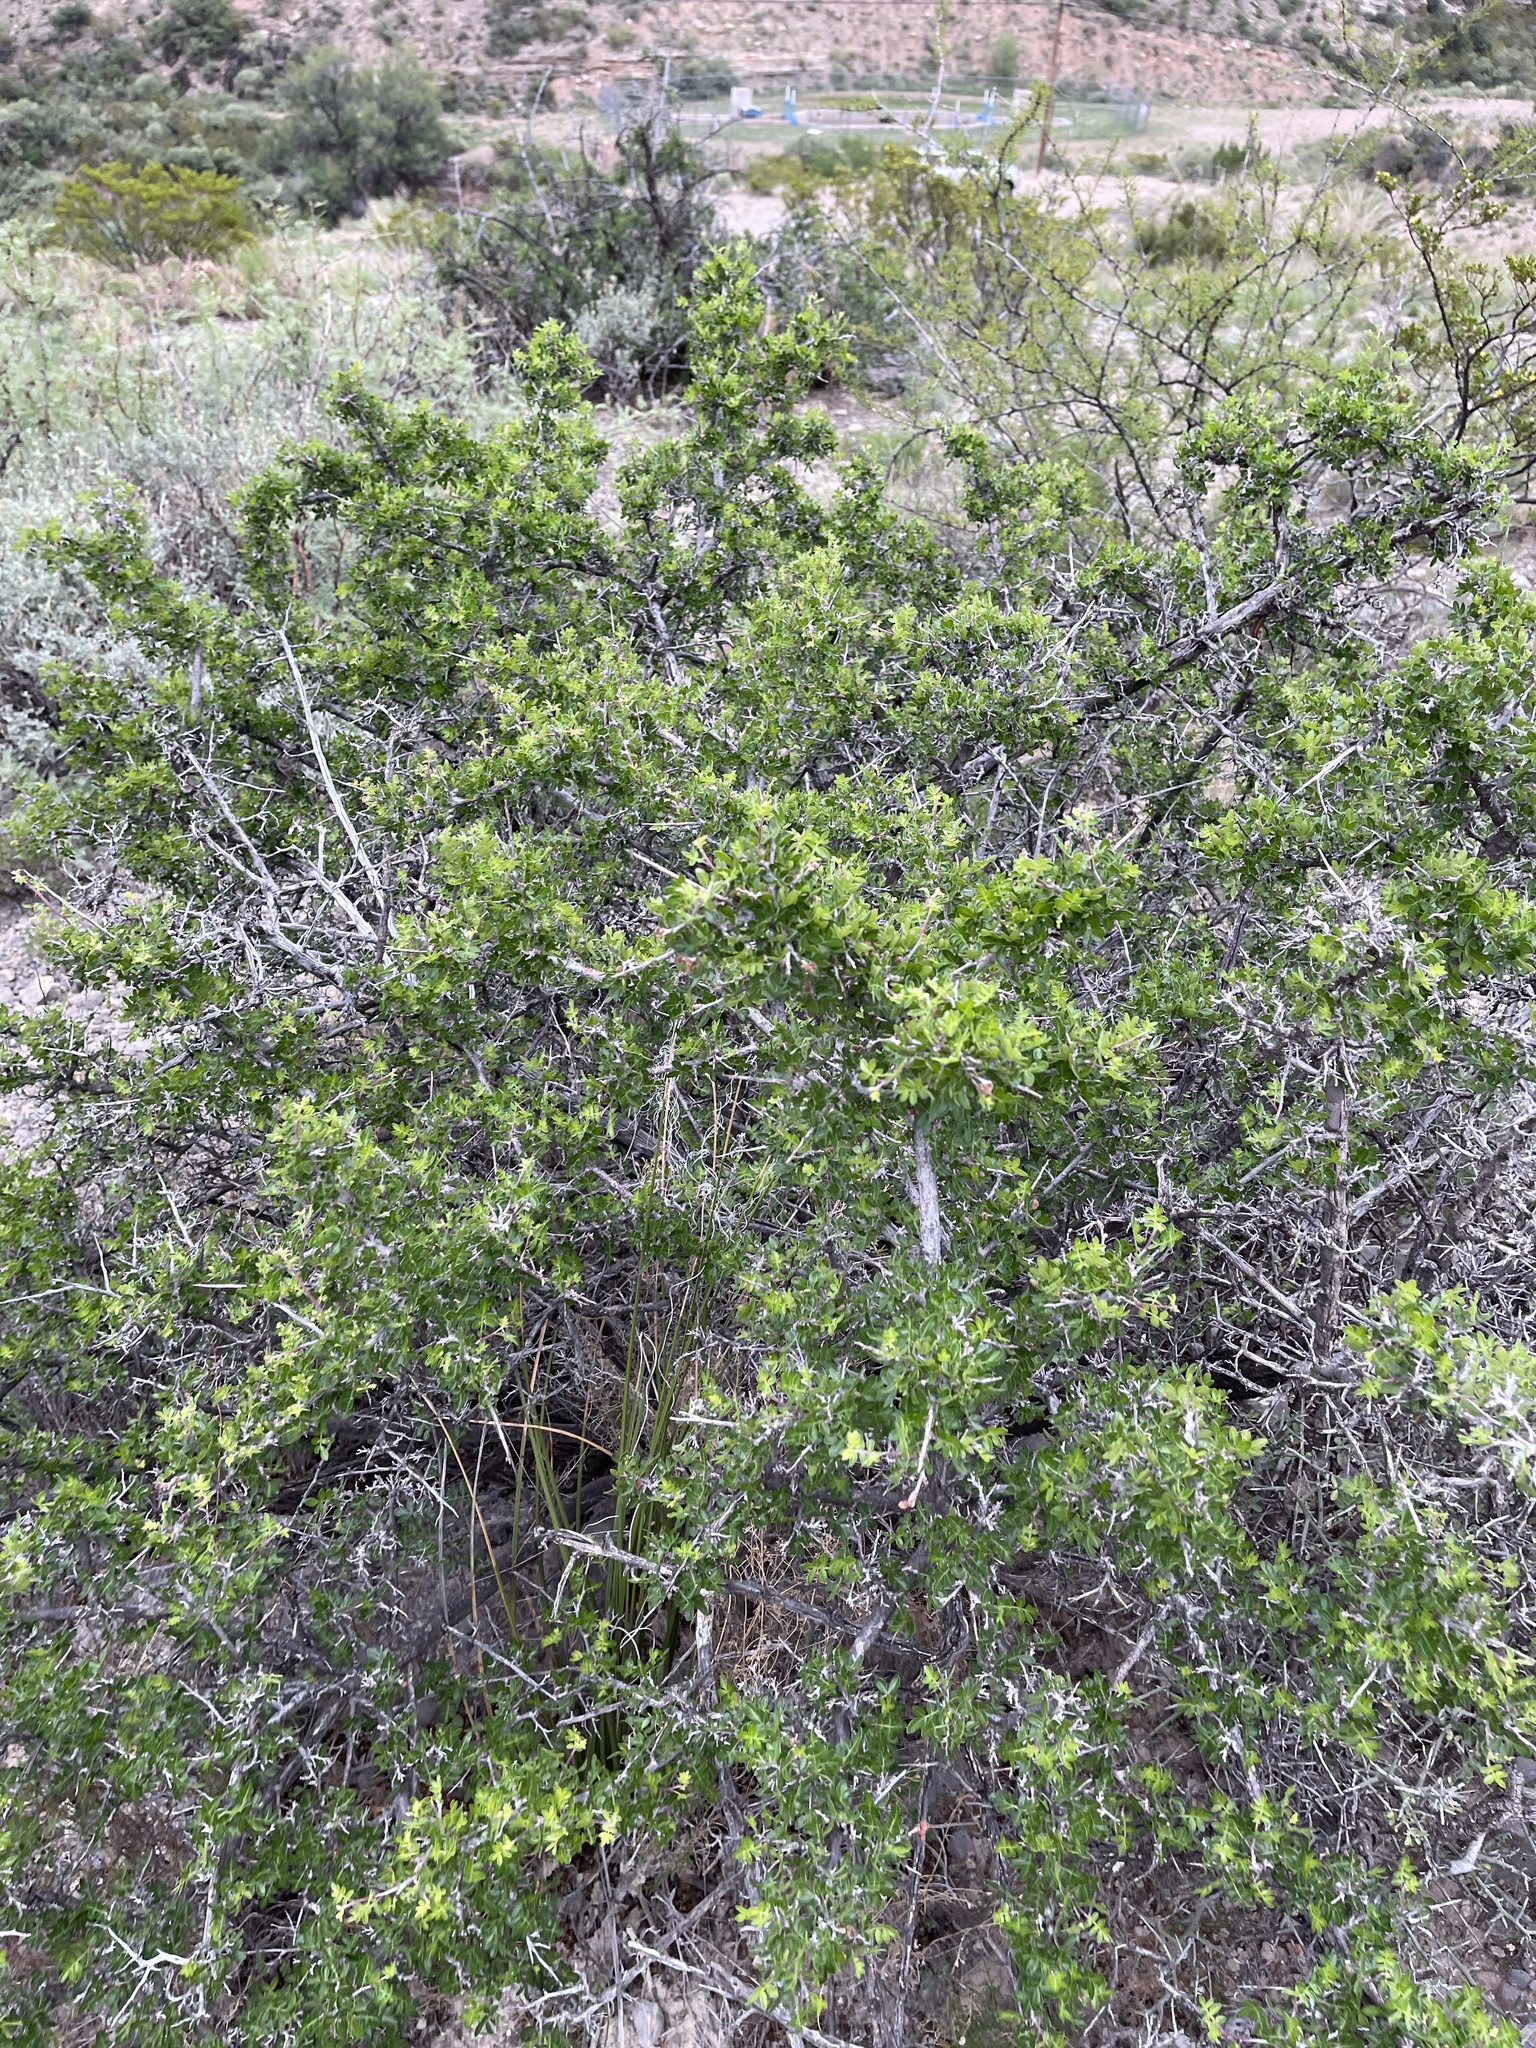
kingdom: Plantae
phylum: Tracheophyta
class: Magnoliopsida
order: Sapindales
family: Anacardiaceae
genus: Rhus
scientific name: Rhus microphylla
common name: Desert sumac
